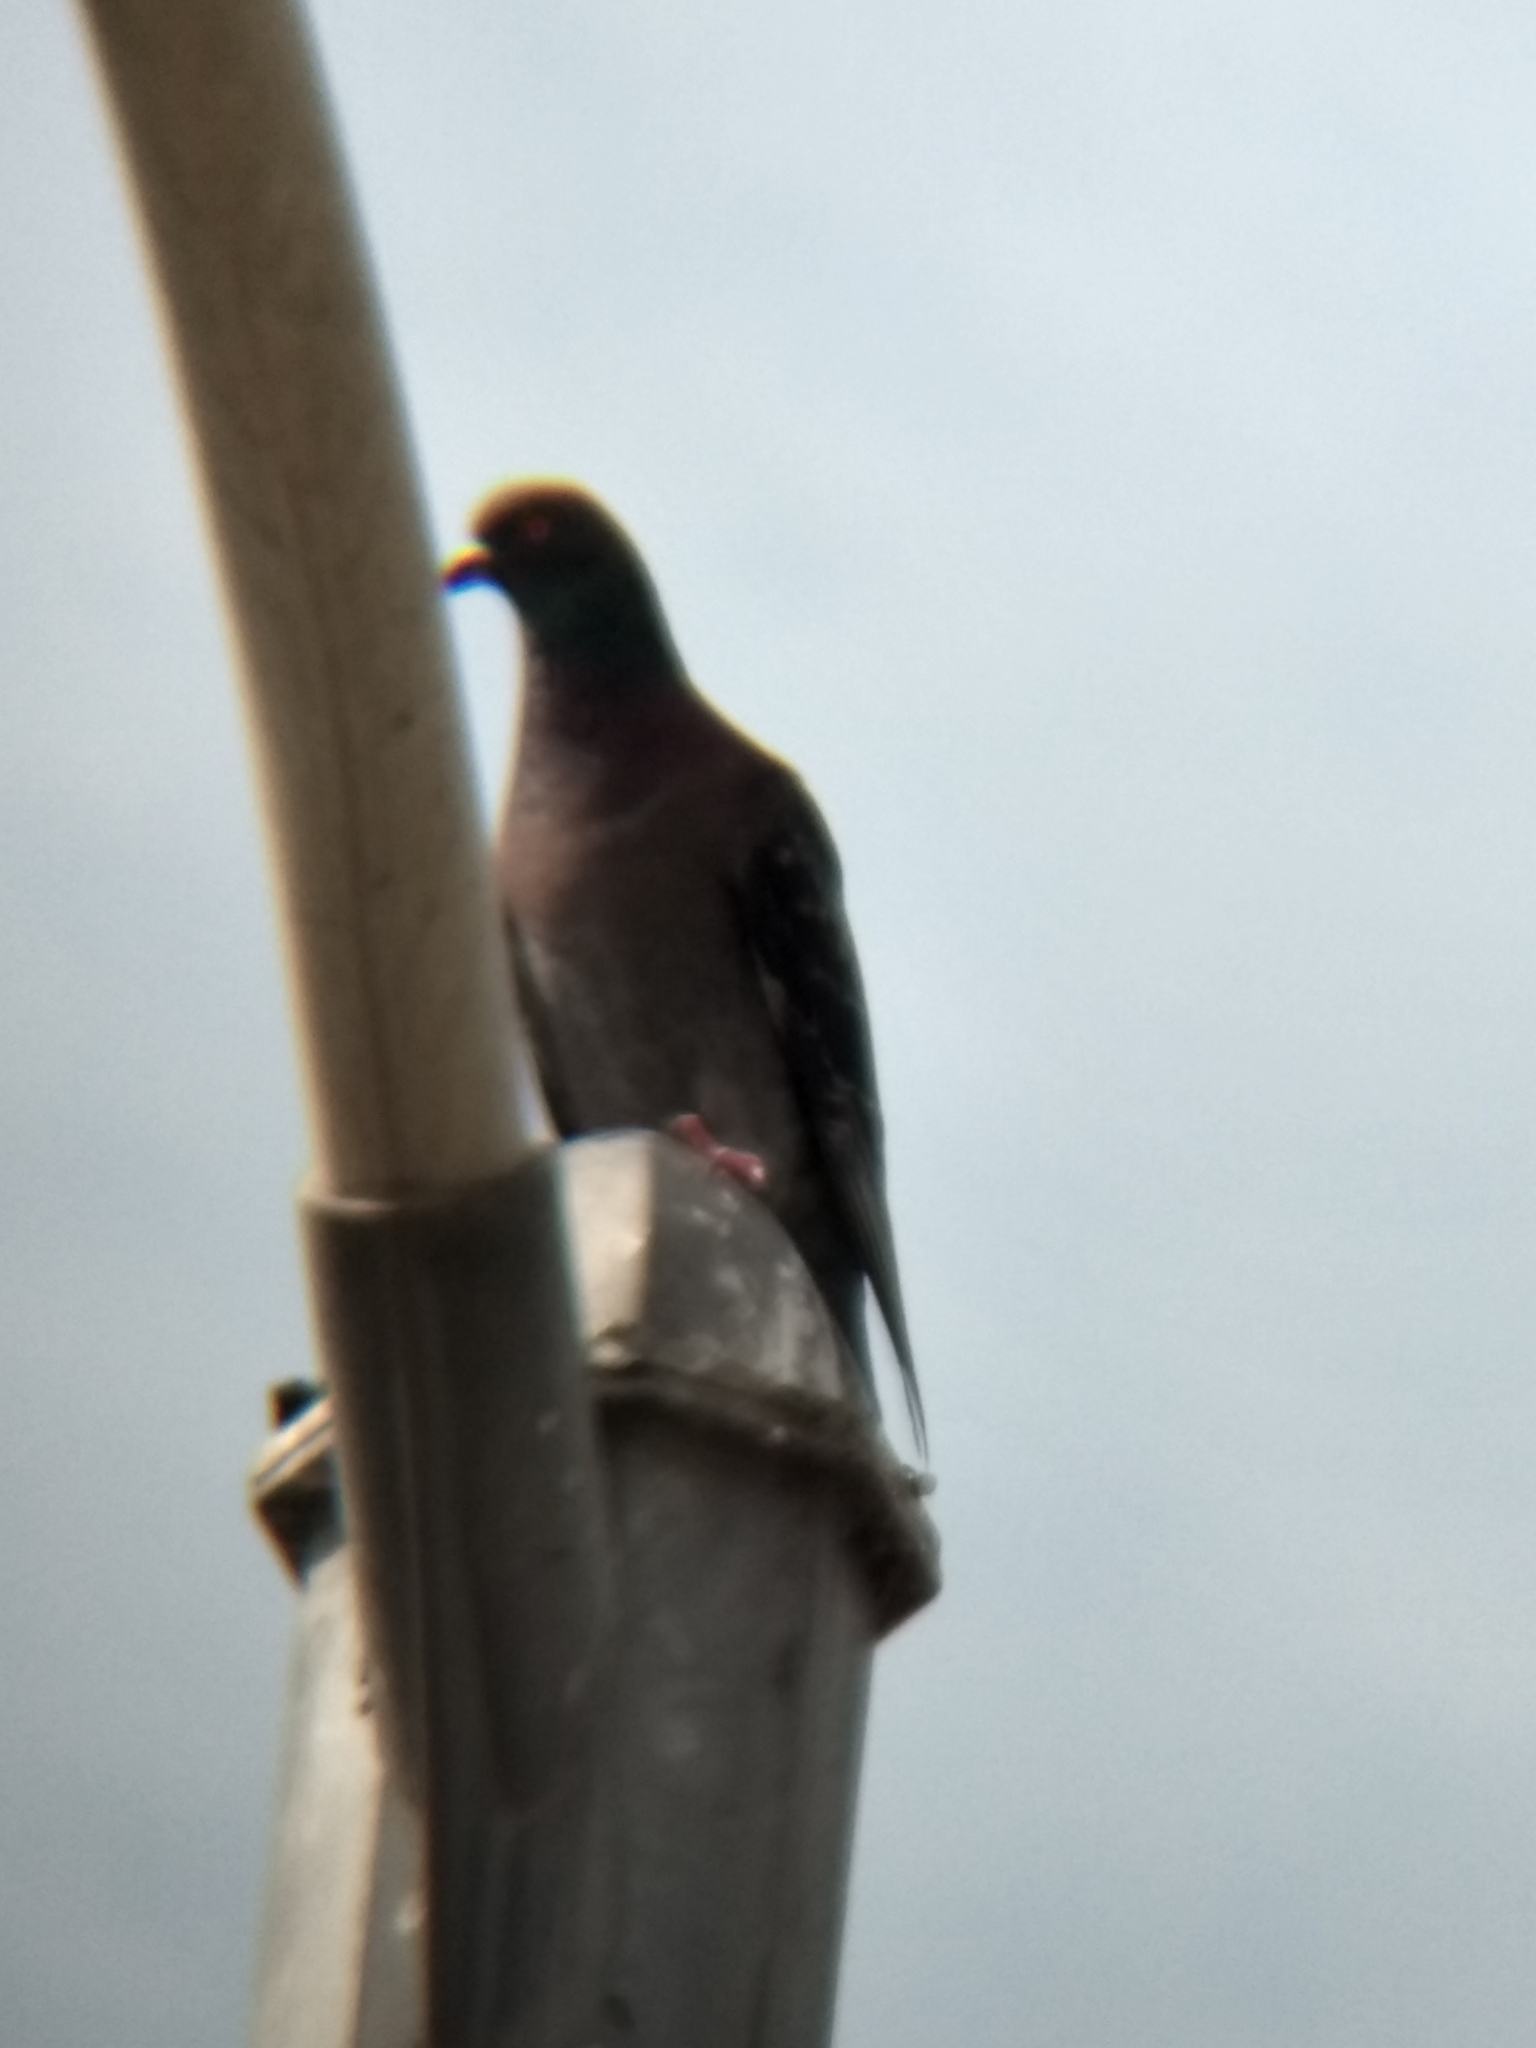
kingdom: Animalia
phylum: Chordata
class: Aves
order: Columbiformes
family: Columbidae
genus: Columba
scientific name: Columba livia
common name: Rock pigeon
